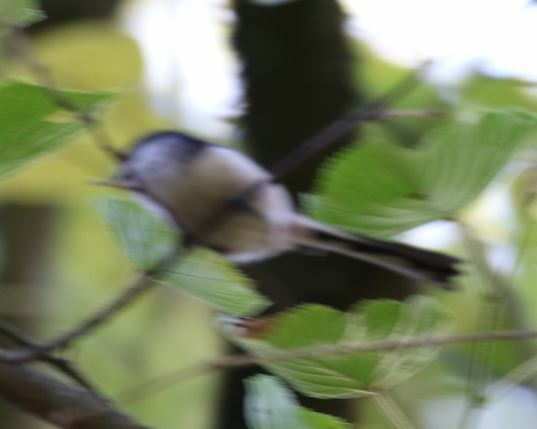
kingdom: Animalia
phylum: Chordata
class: Aves
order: Passeriformes
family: Aegithalidae
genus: Aegithalos
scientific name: Aegithalos caudatus
